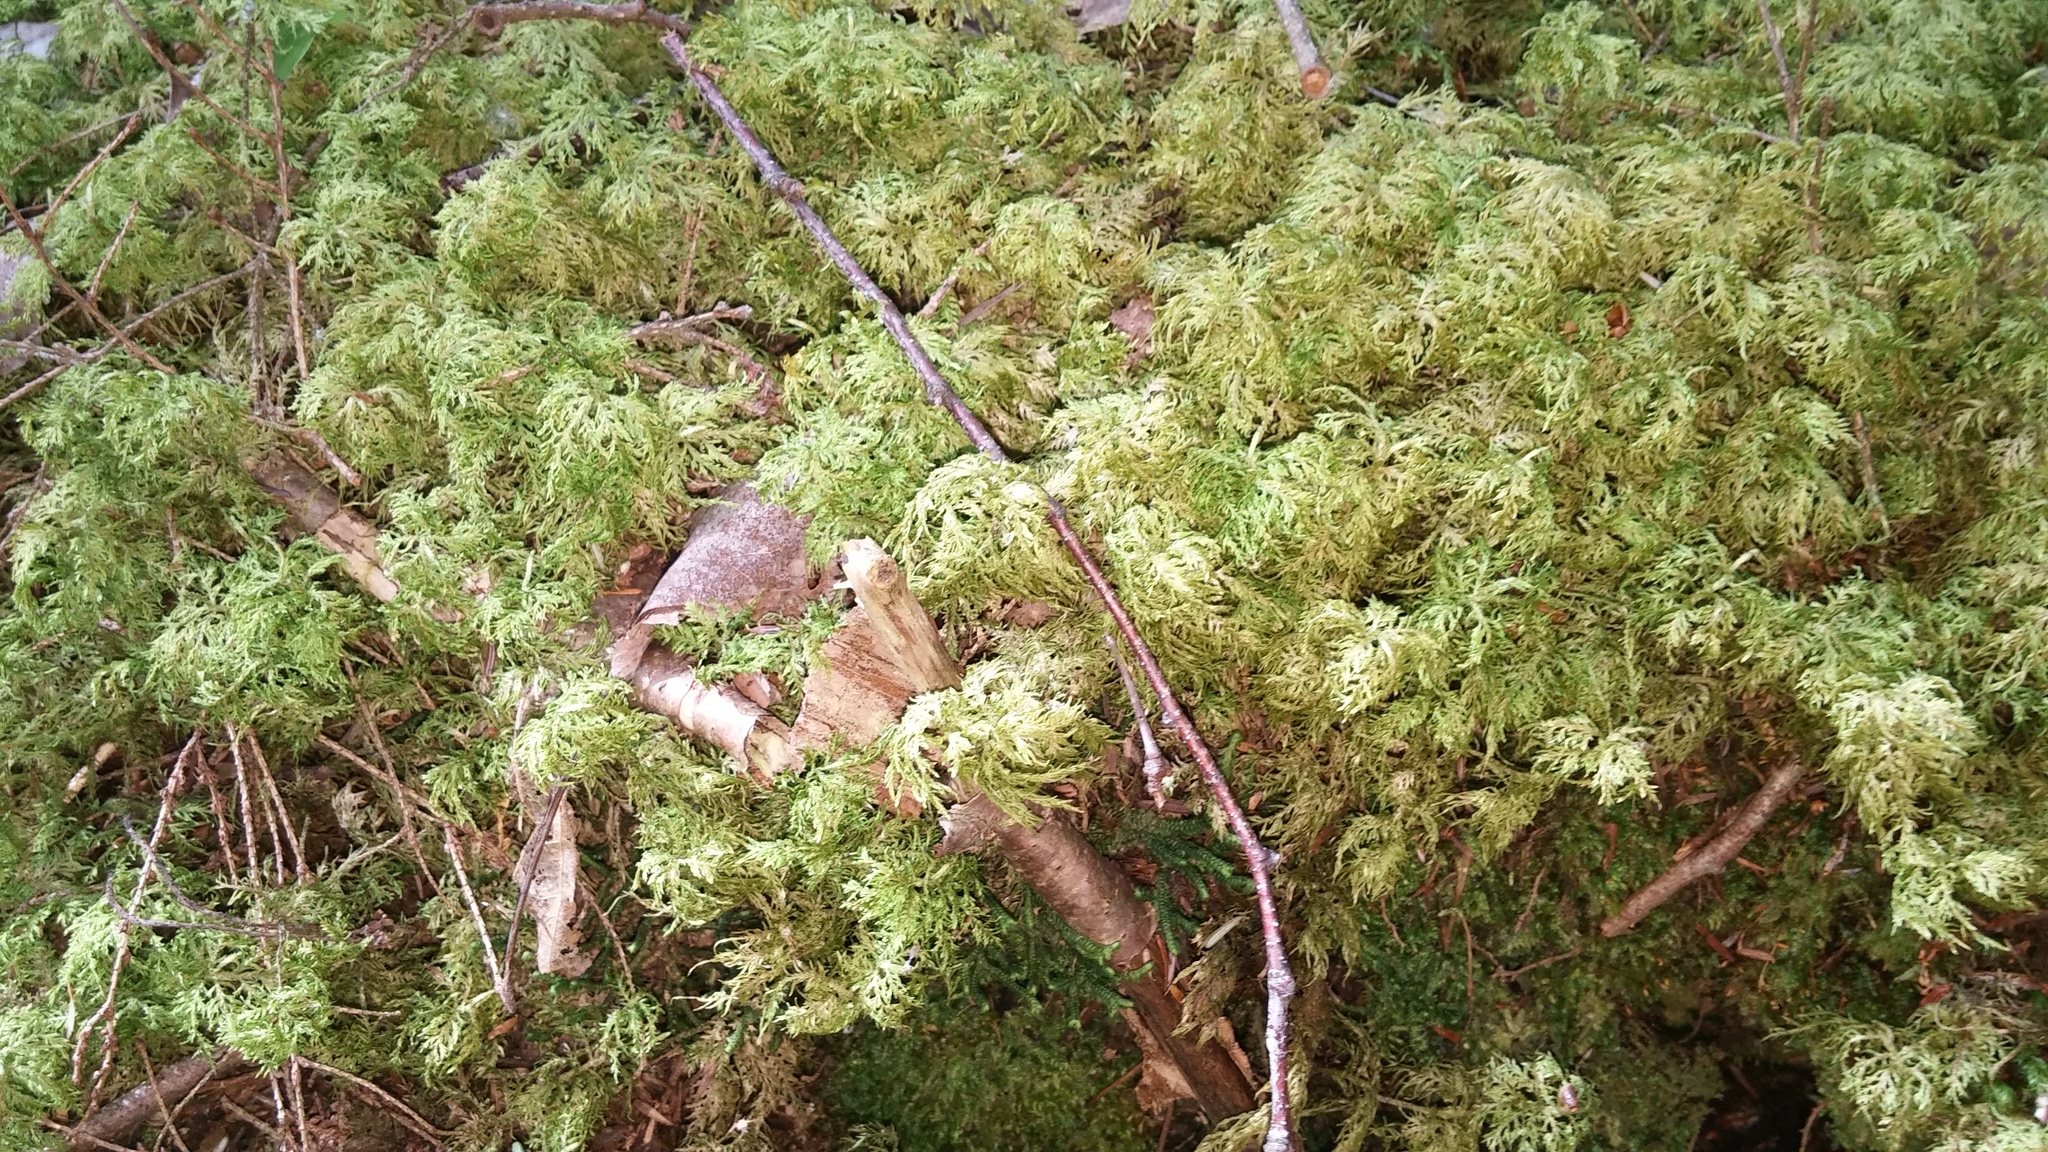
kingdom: Plantae
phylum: Bryophyta
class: Bryopsida
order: Hypnales
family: Hylocomiaceae
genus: Hylocomium
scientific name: Hylocomium splendens
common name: Stairstep moss
